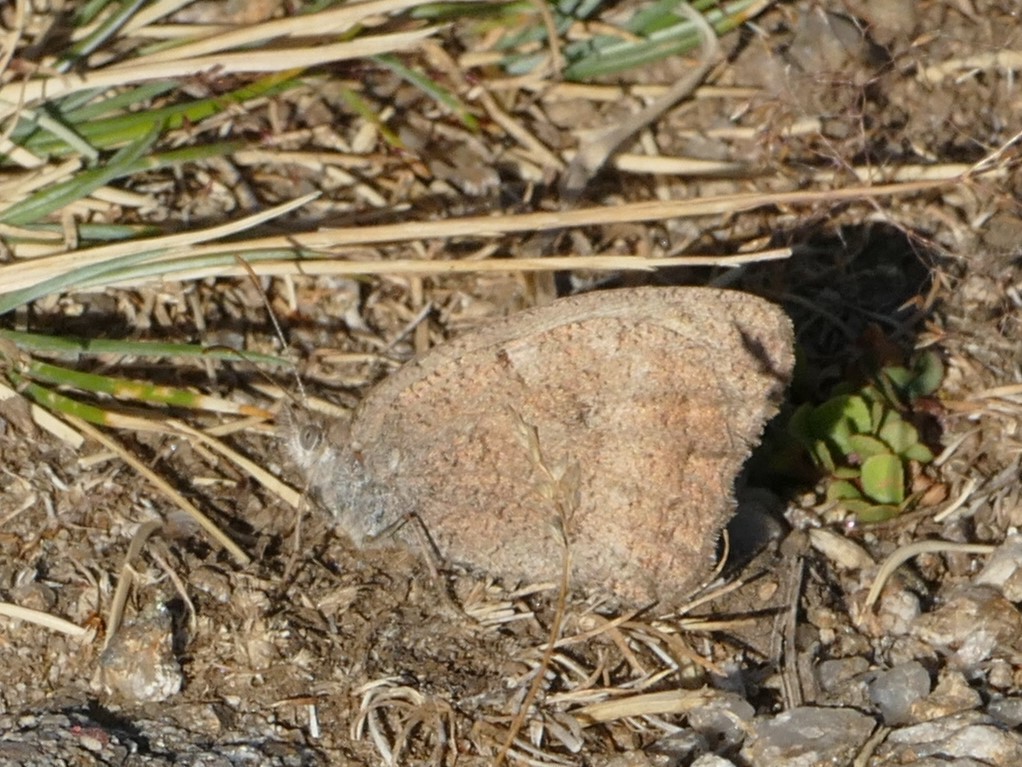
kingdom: Animalia
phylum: Arthropoda
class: Insecta
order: Lepidoptera
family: Nymphalidae
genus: Hipparchia
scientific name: Hipparchia statilinus
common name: Tree grayling
